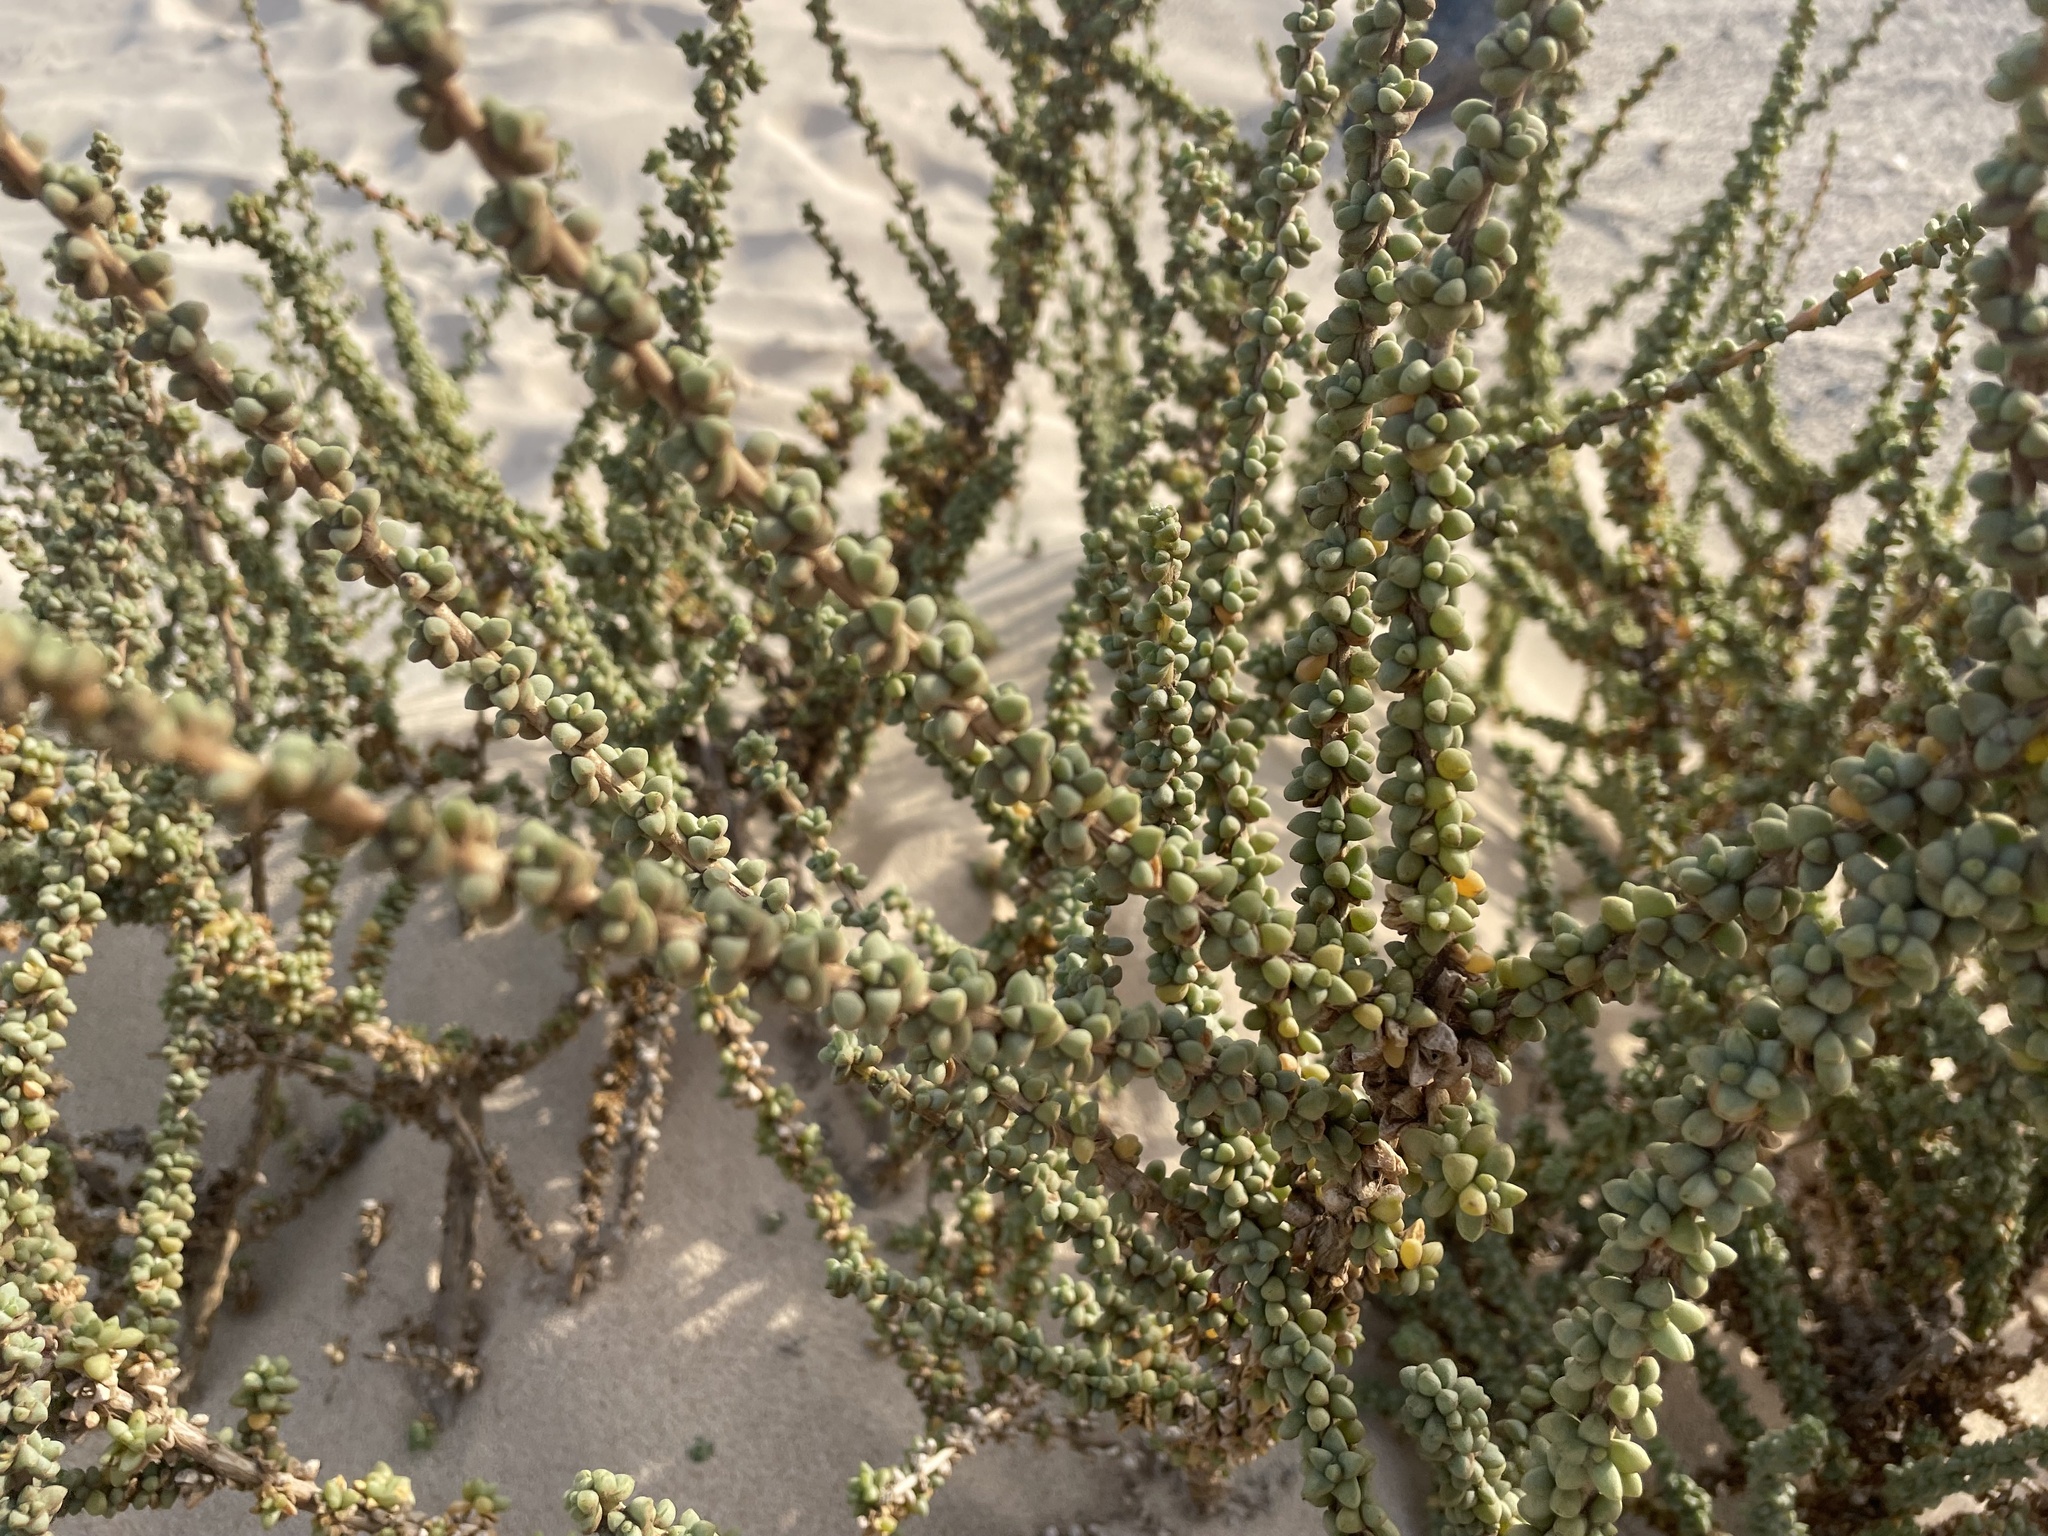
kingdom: Plantae
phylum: Tracheophyta
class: Magnoliopsida
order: Caryophyllales
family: Amaranthaceae
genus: Traganum
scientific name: Traganum moquinii
